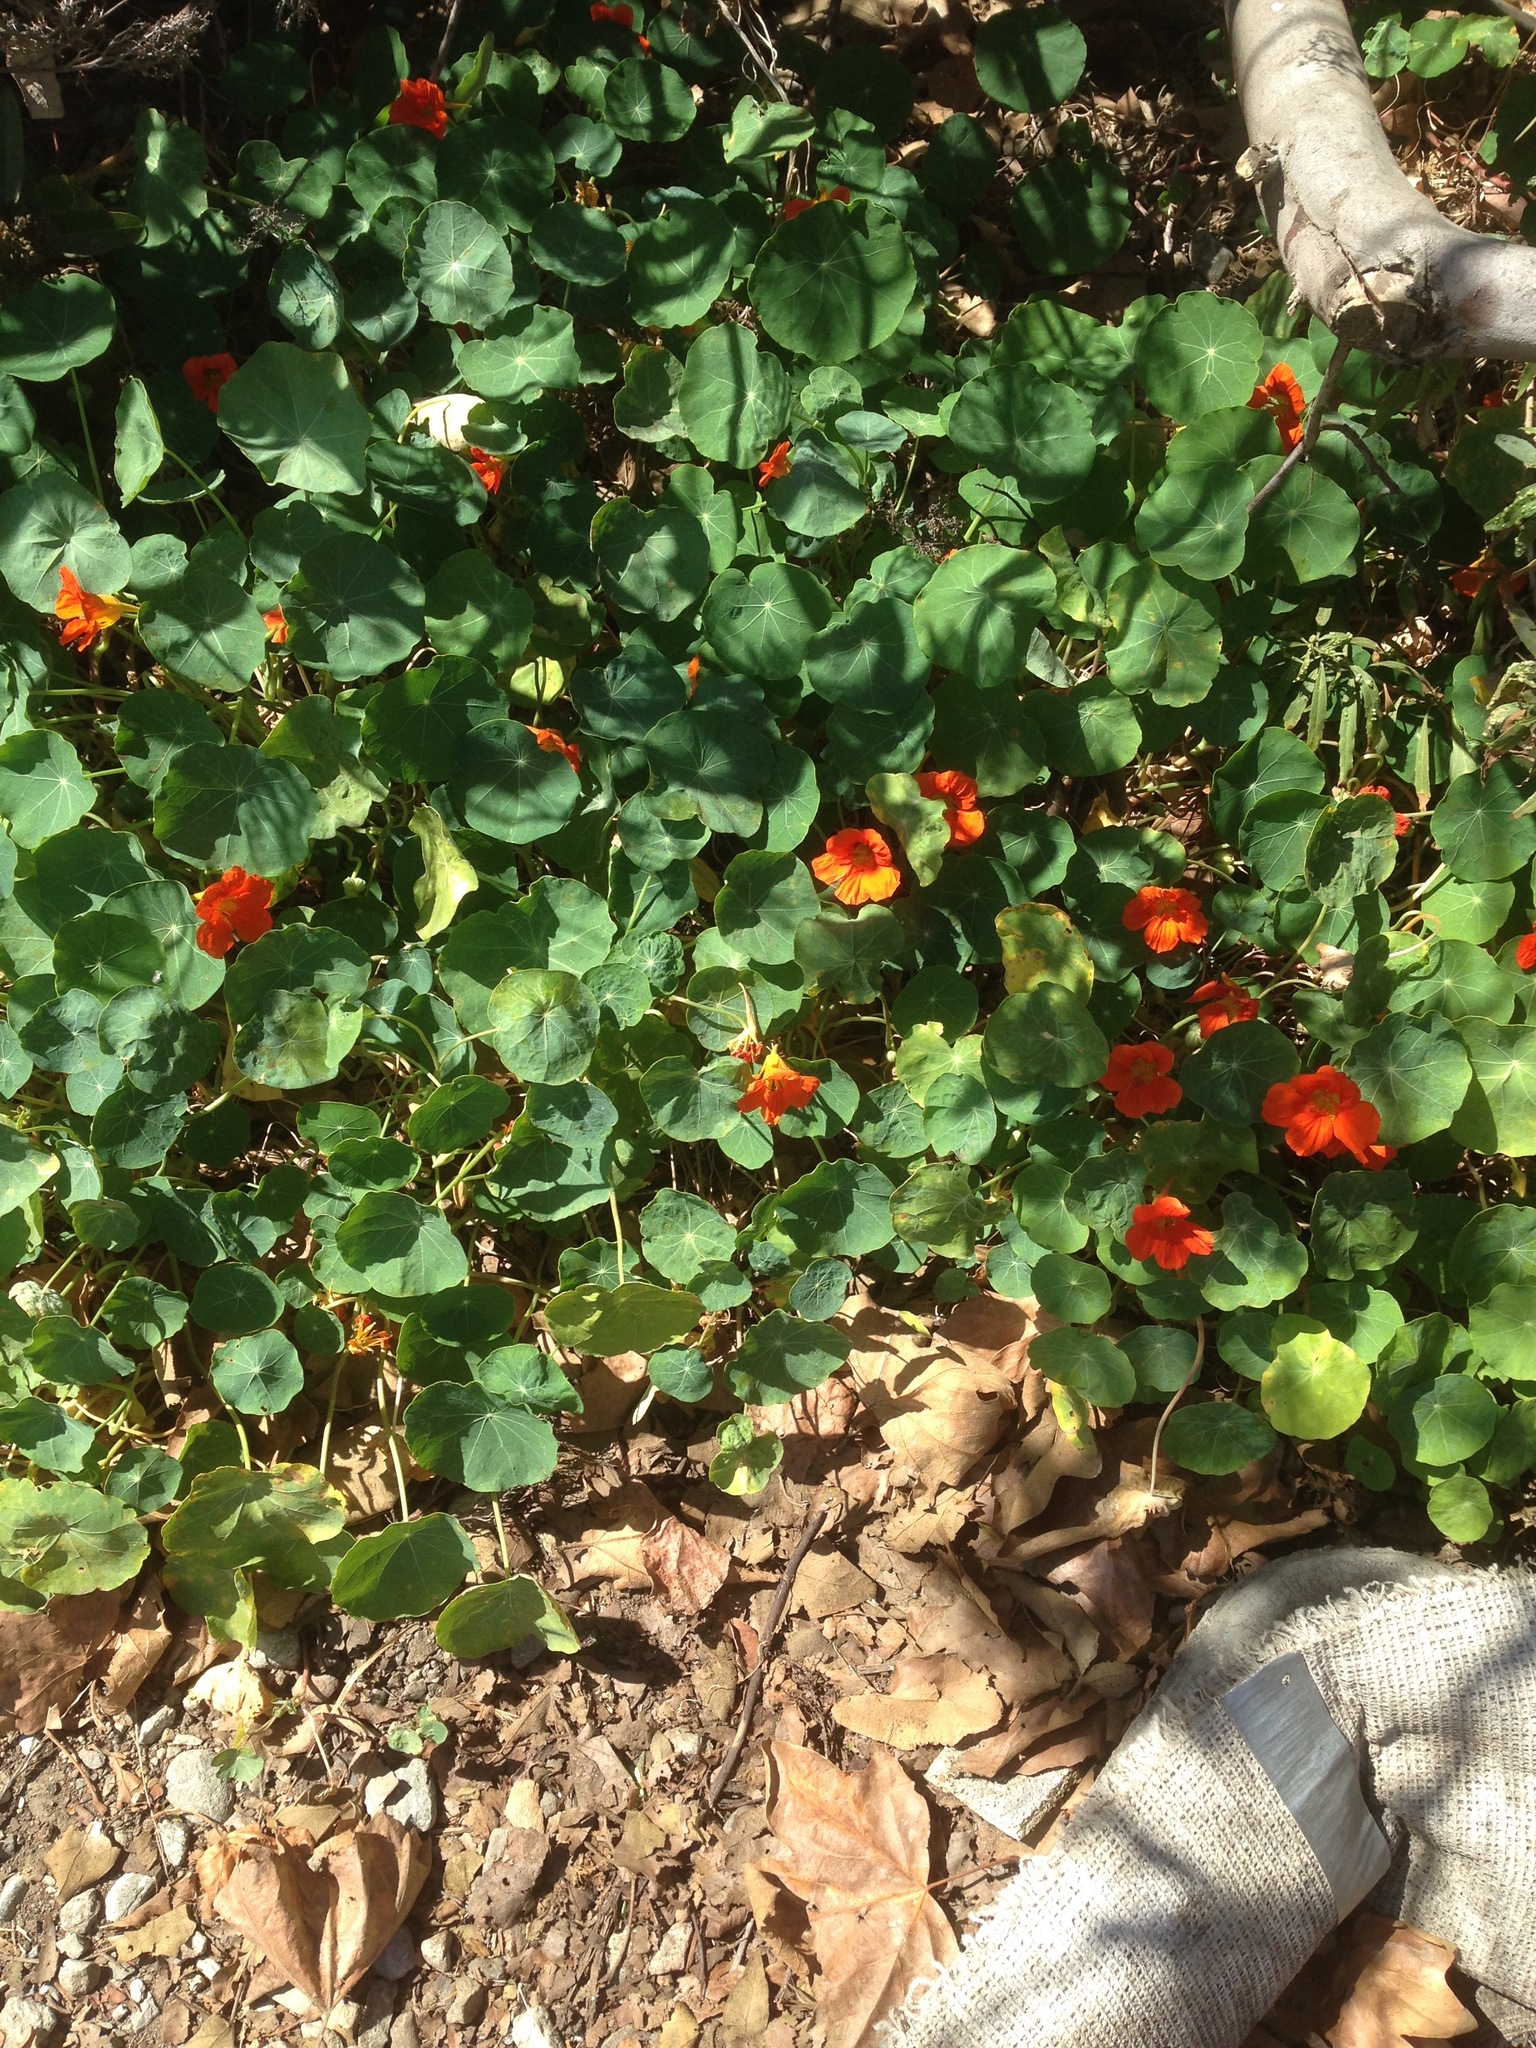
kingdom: Plantae
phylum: Tracheophyta
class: Magnoliopsida
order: Brassicales
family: Tropaeolaceae
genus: Tropaeolum
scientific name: Tropaeolum majus
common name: Nasturtium
